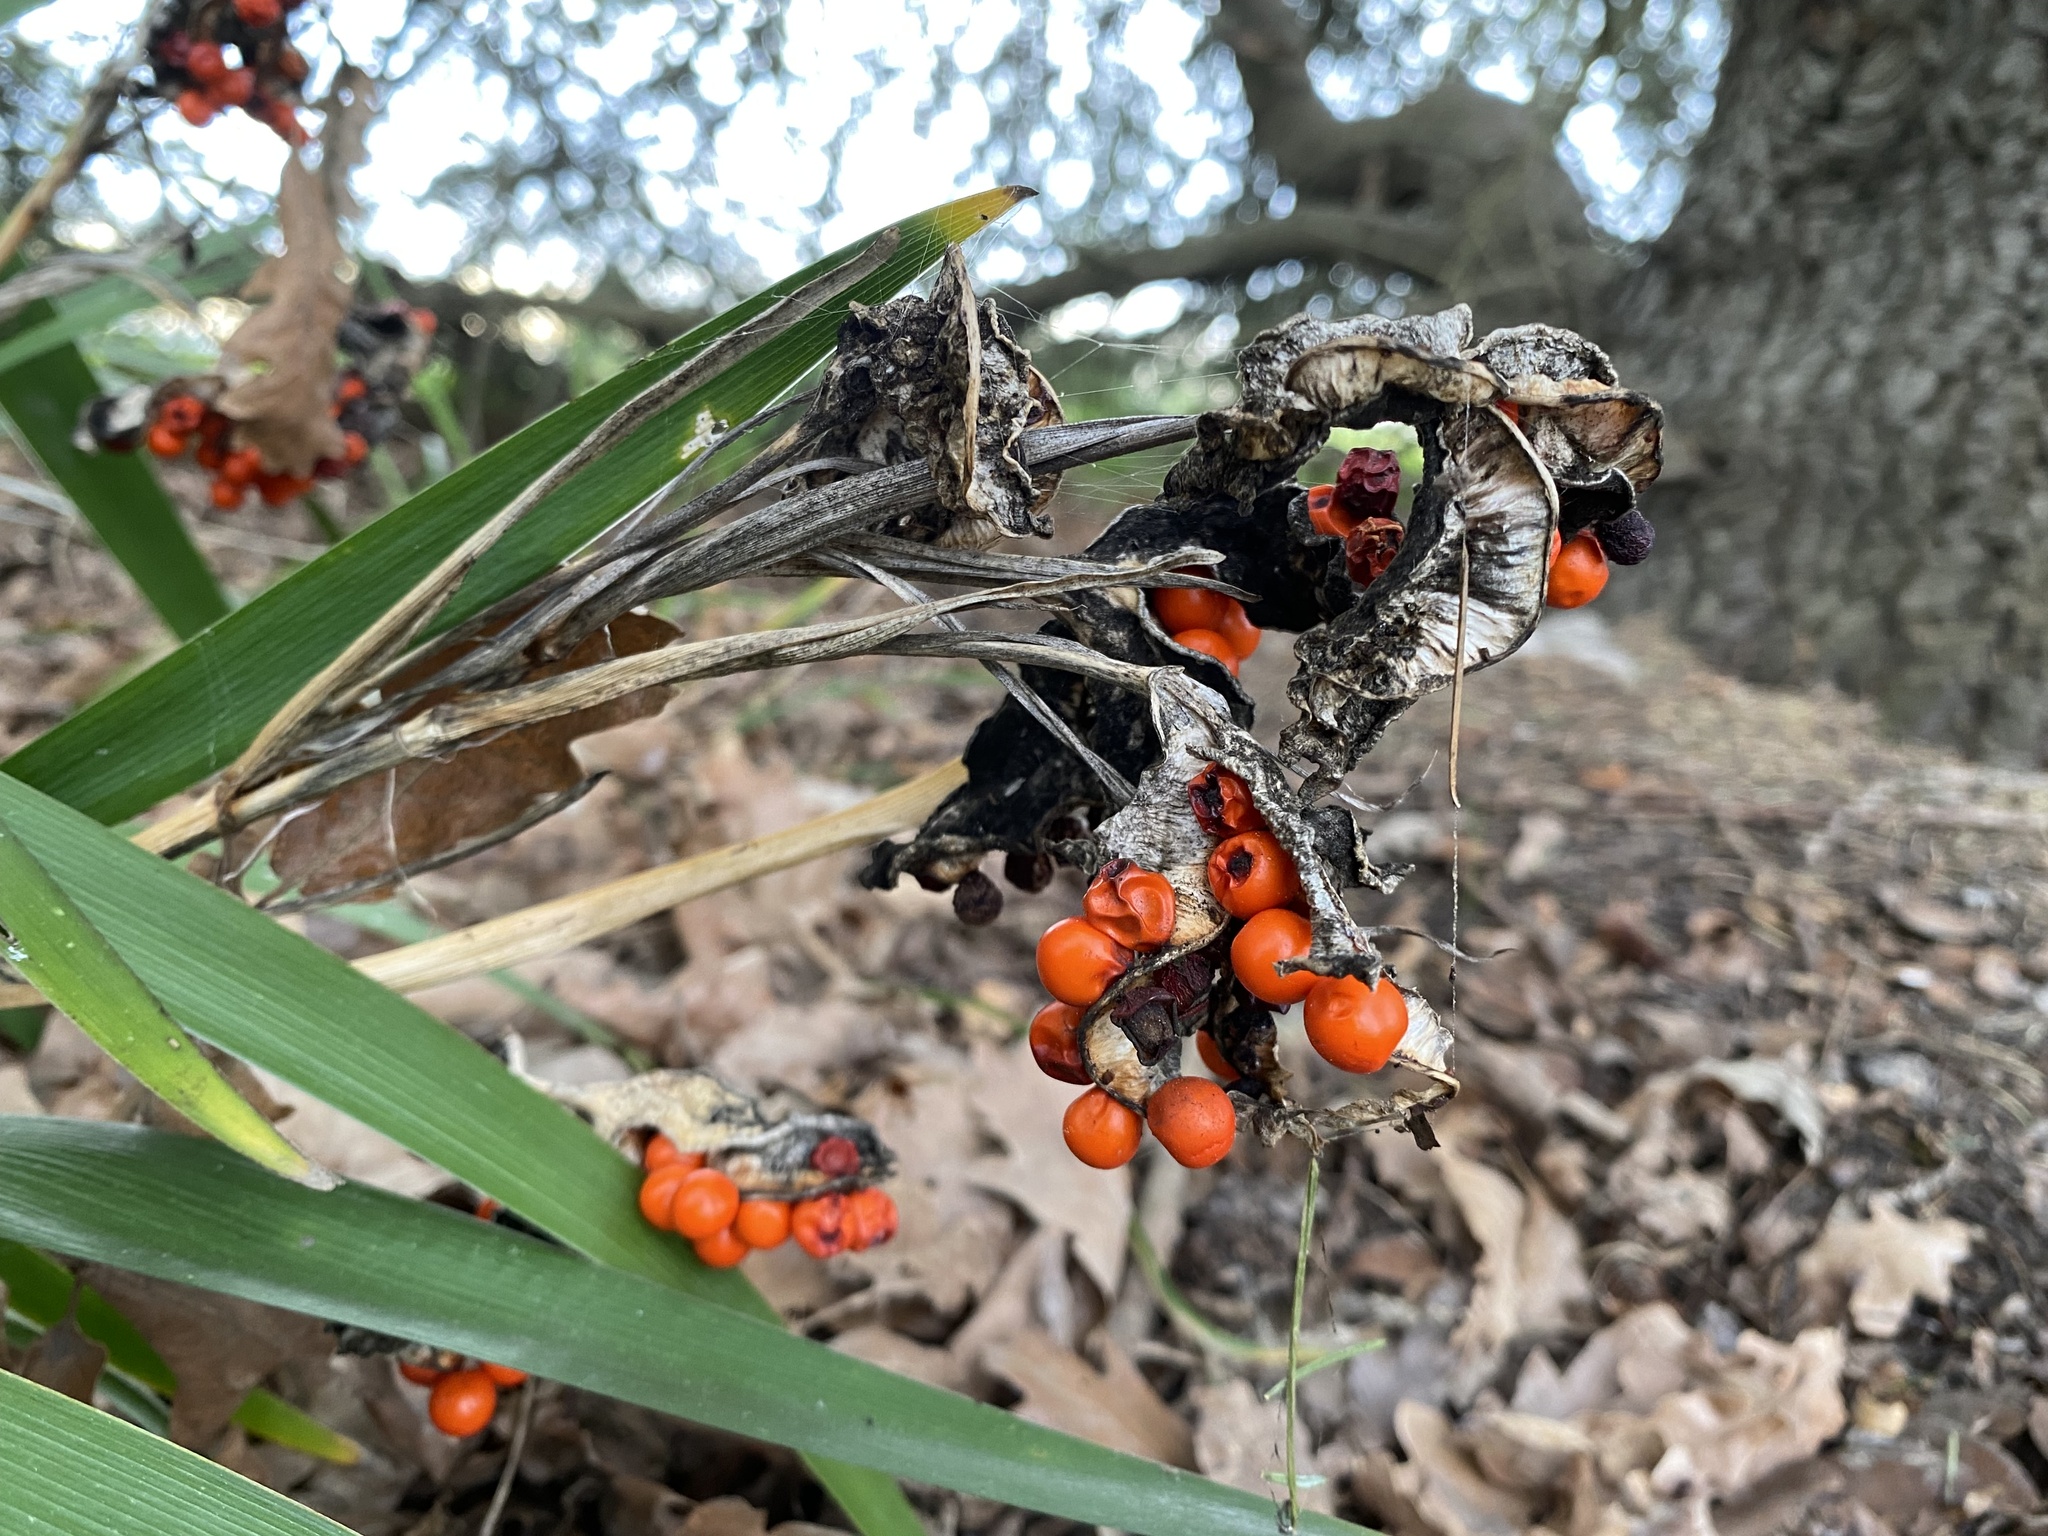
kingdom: Plantae
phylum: Tracheophyta
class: Liliopsida
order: Asparagales
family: Iridaceae
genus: Iris
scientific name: Iris foetidissima
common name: Stinking iris
